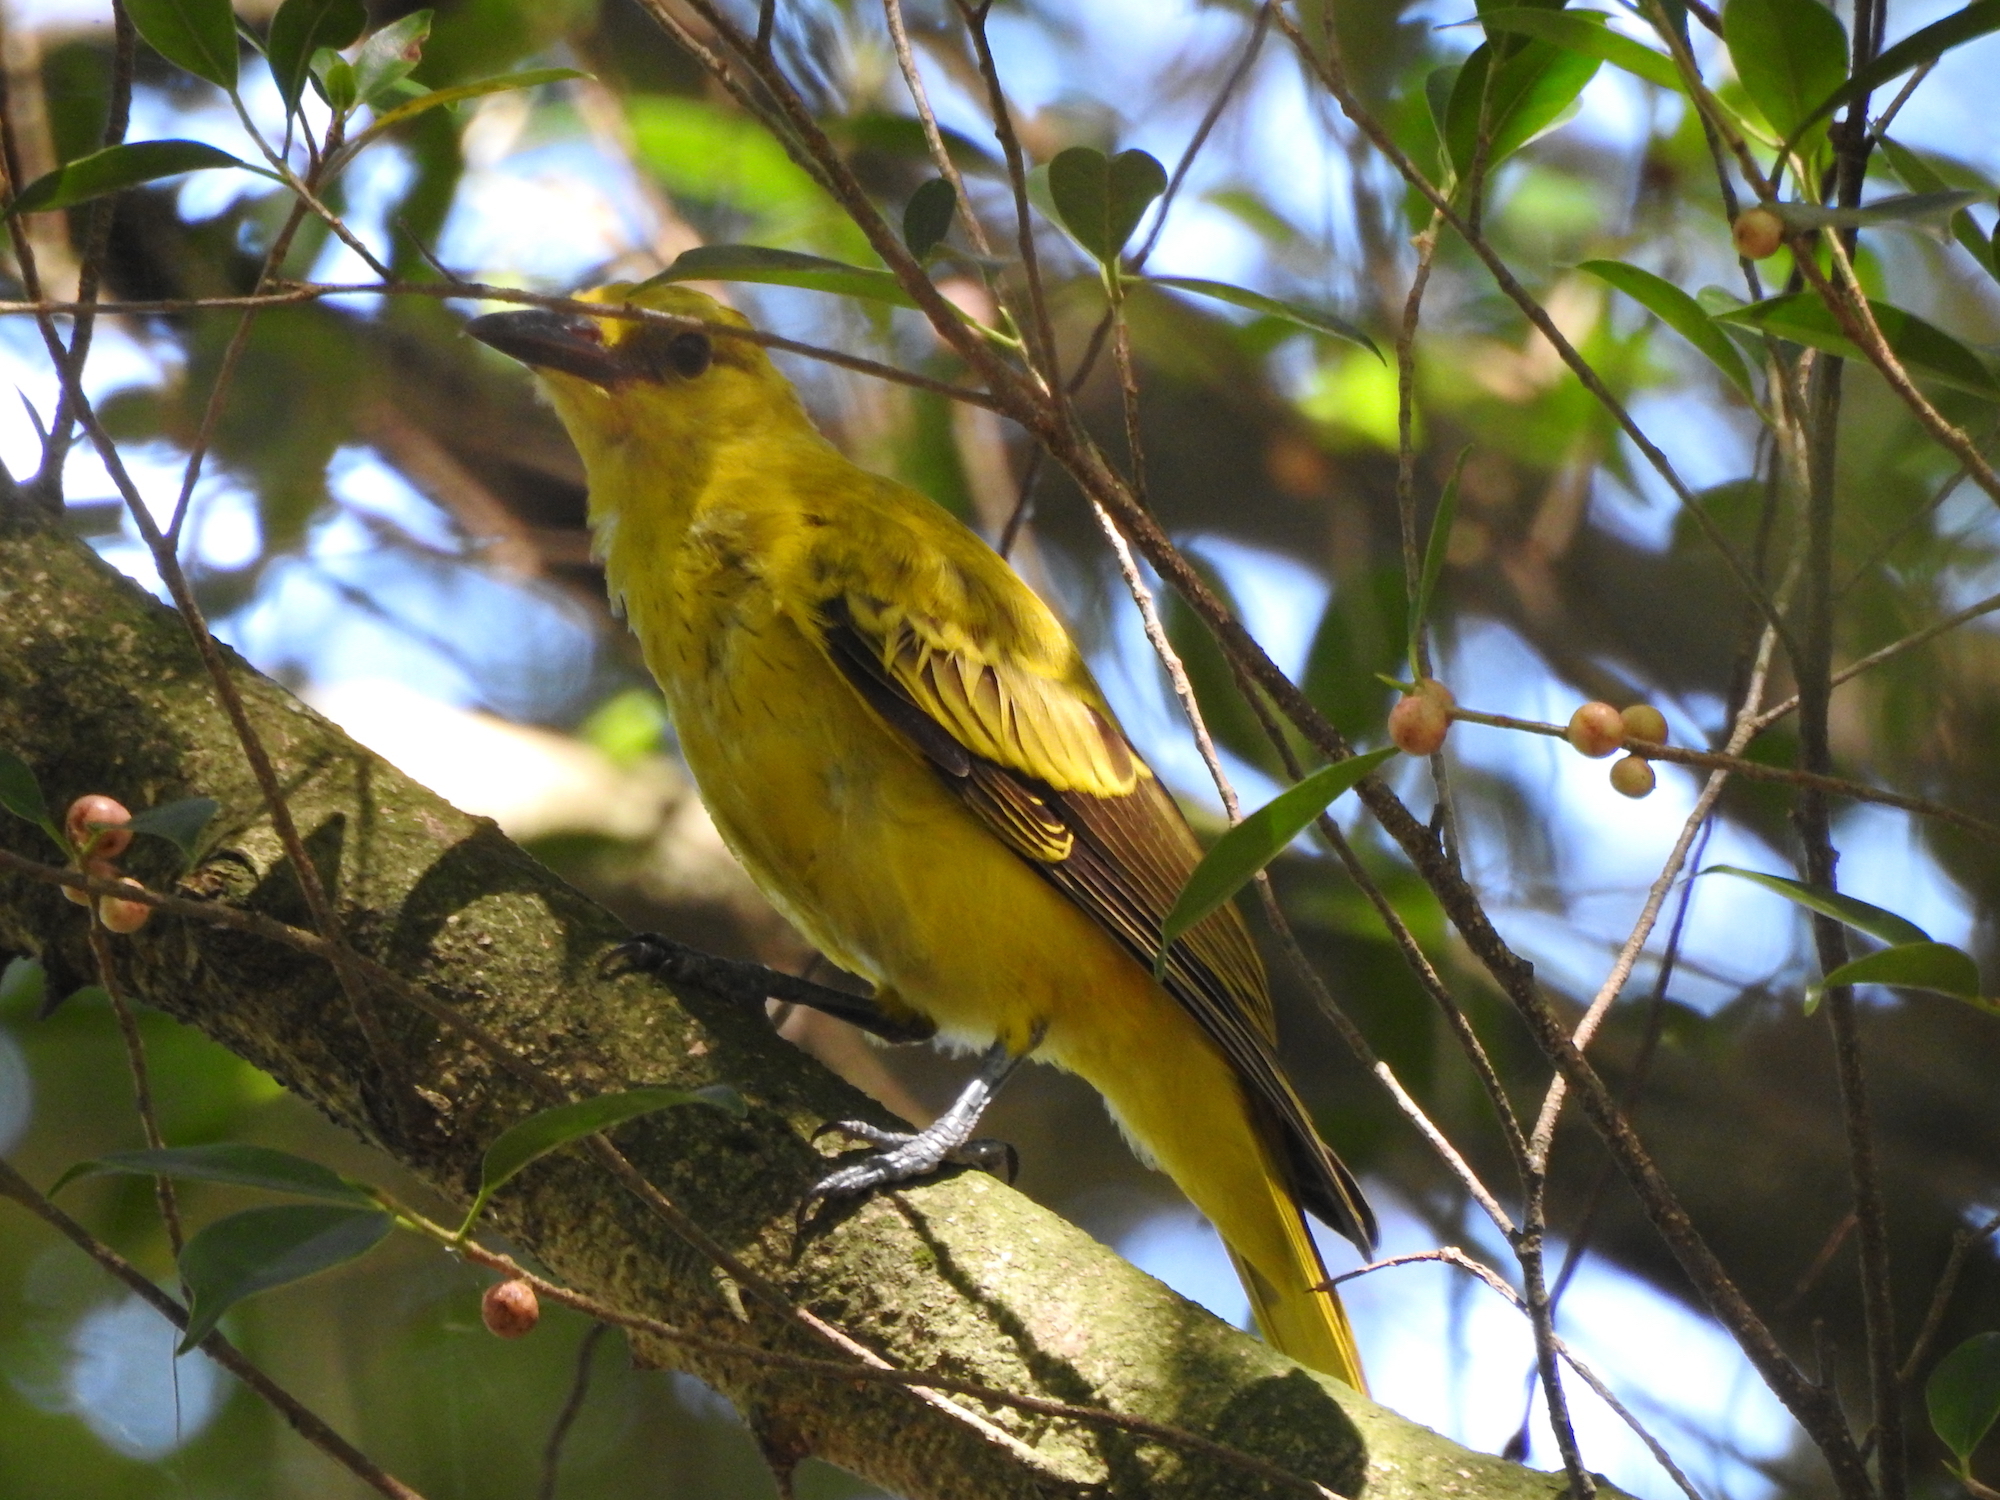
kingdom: Animalia
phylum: Chordata
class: Aves
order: Passeriformes
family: Oriolidae
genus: Oriolus
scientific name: Oriolus chinensis
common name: Black-naped oriole
